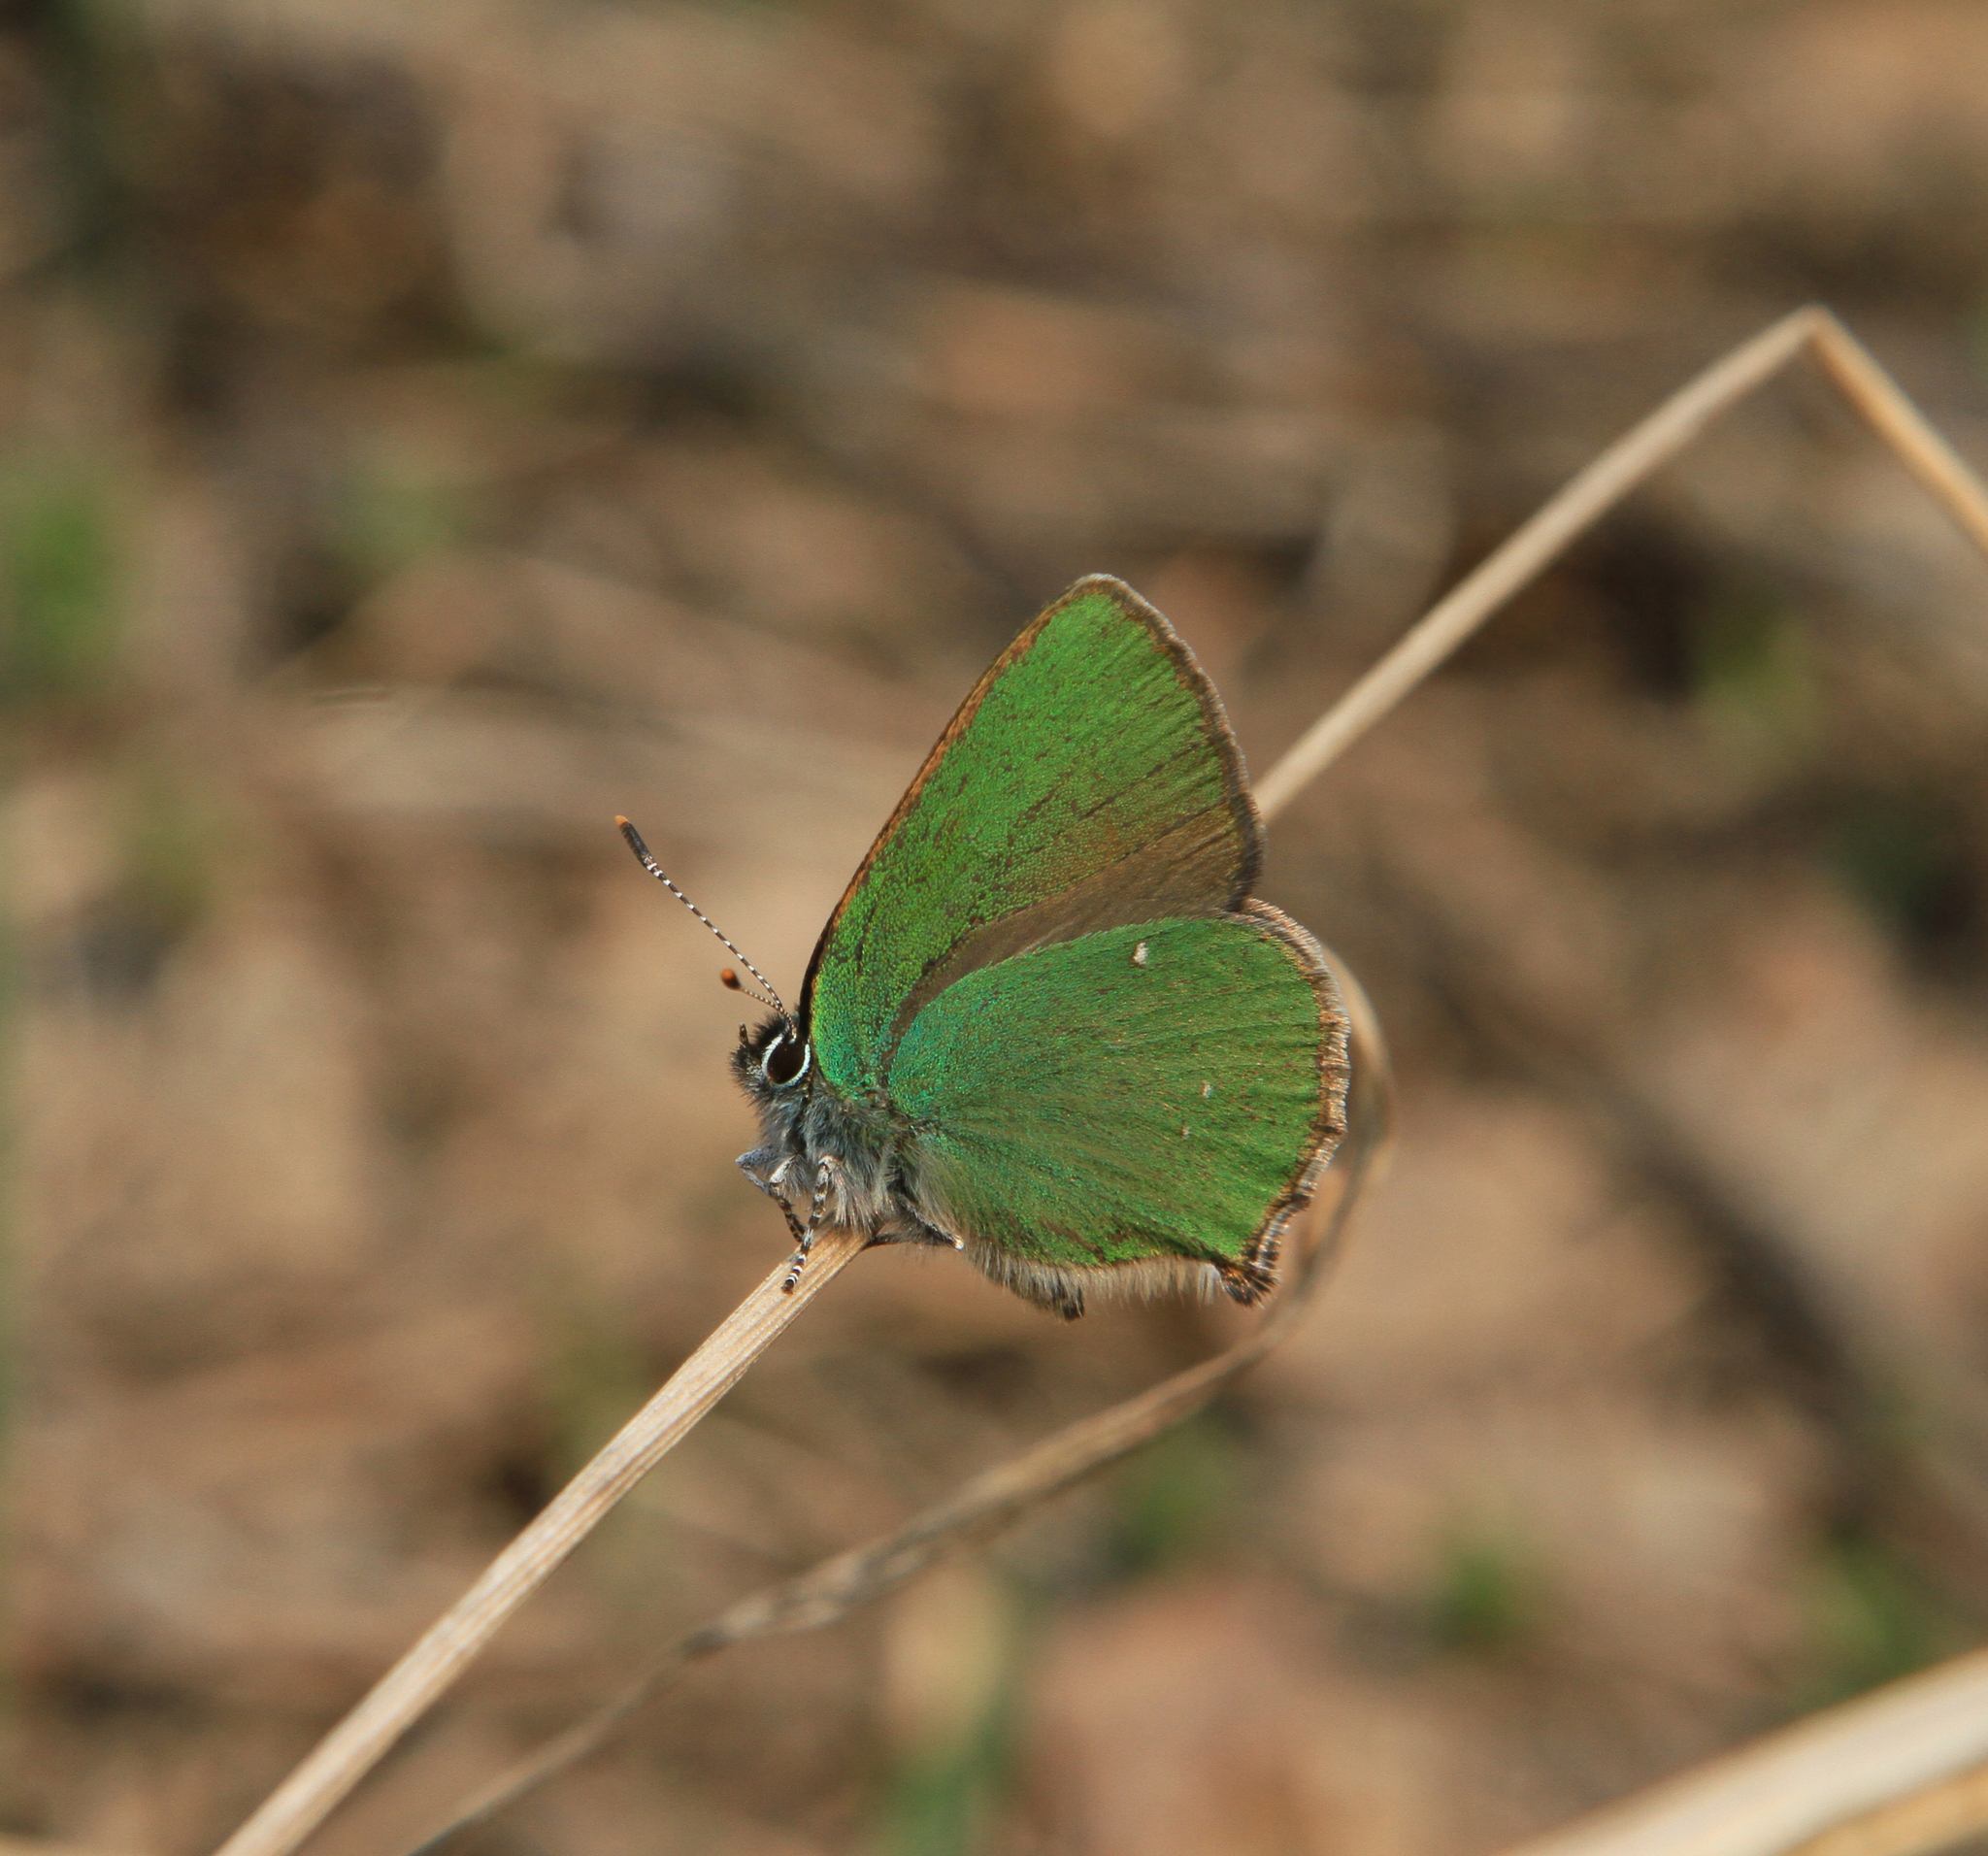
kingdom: Animalia
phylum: Arthropoda
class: Insecta
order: Lepidoptera
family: Lycaenidae
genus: Callophrys
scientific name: Callophrys rubi
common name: Green hairstreak
